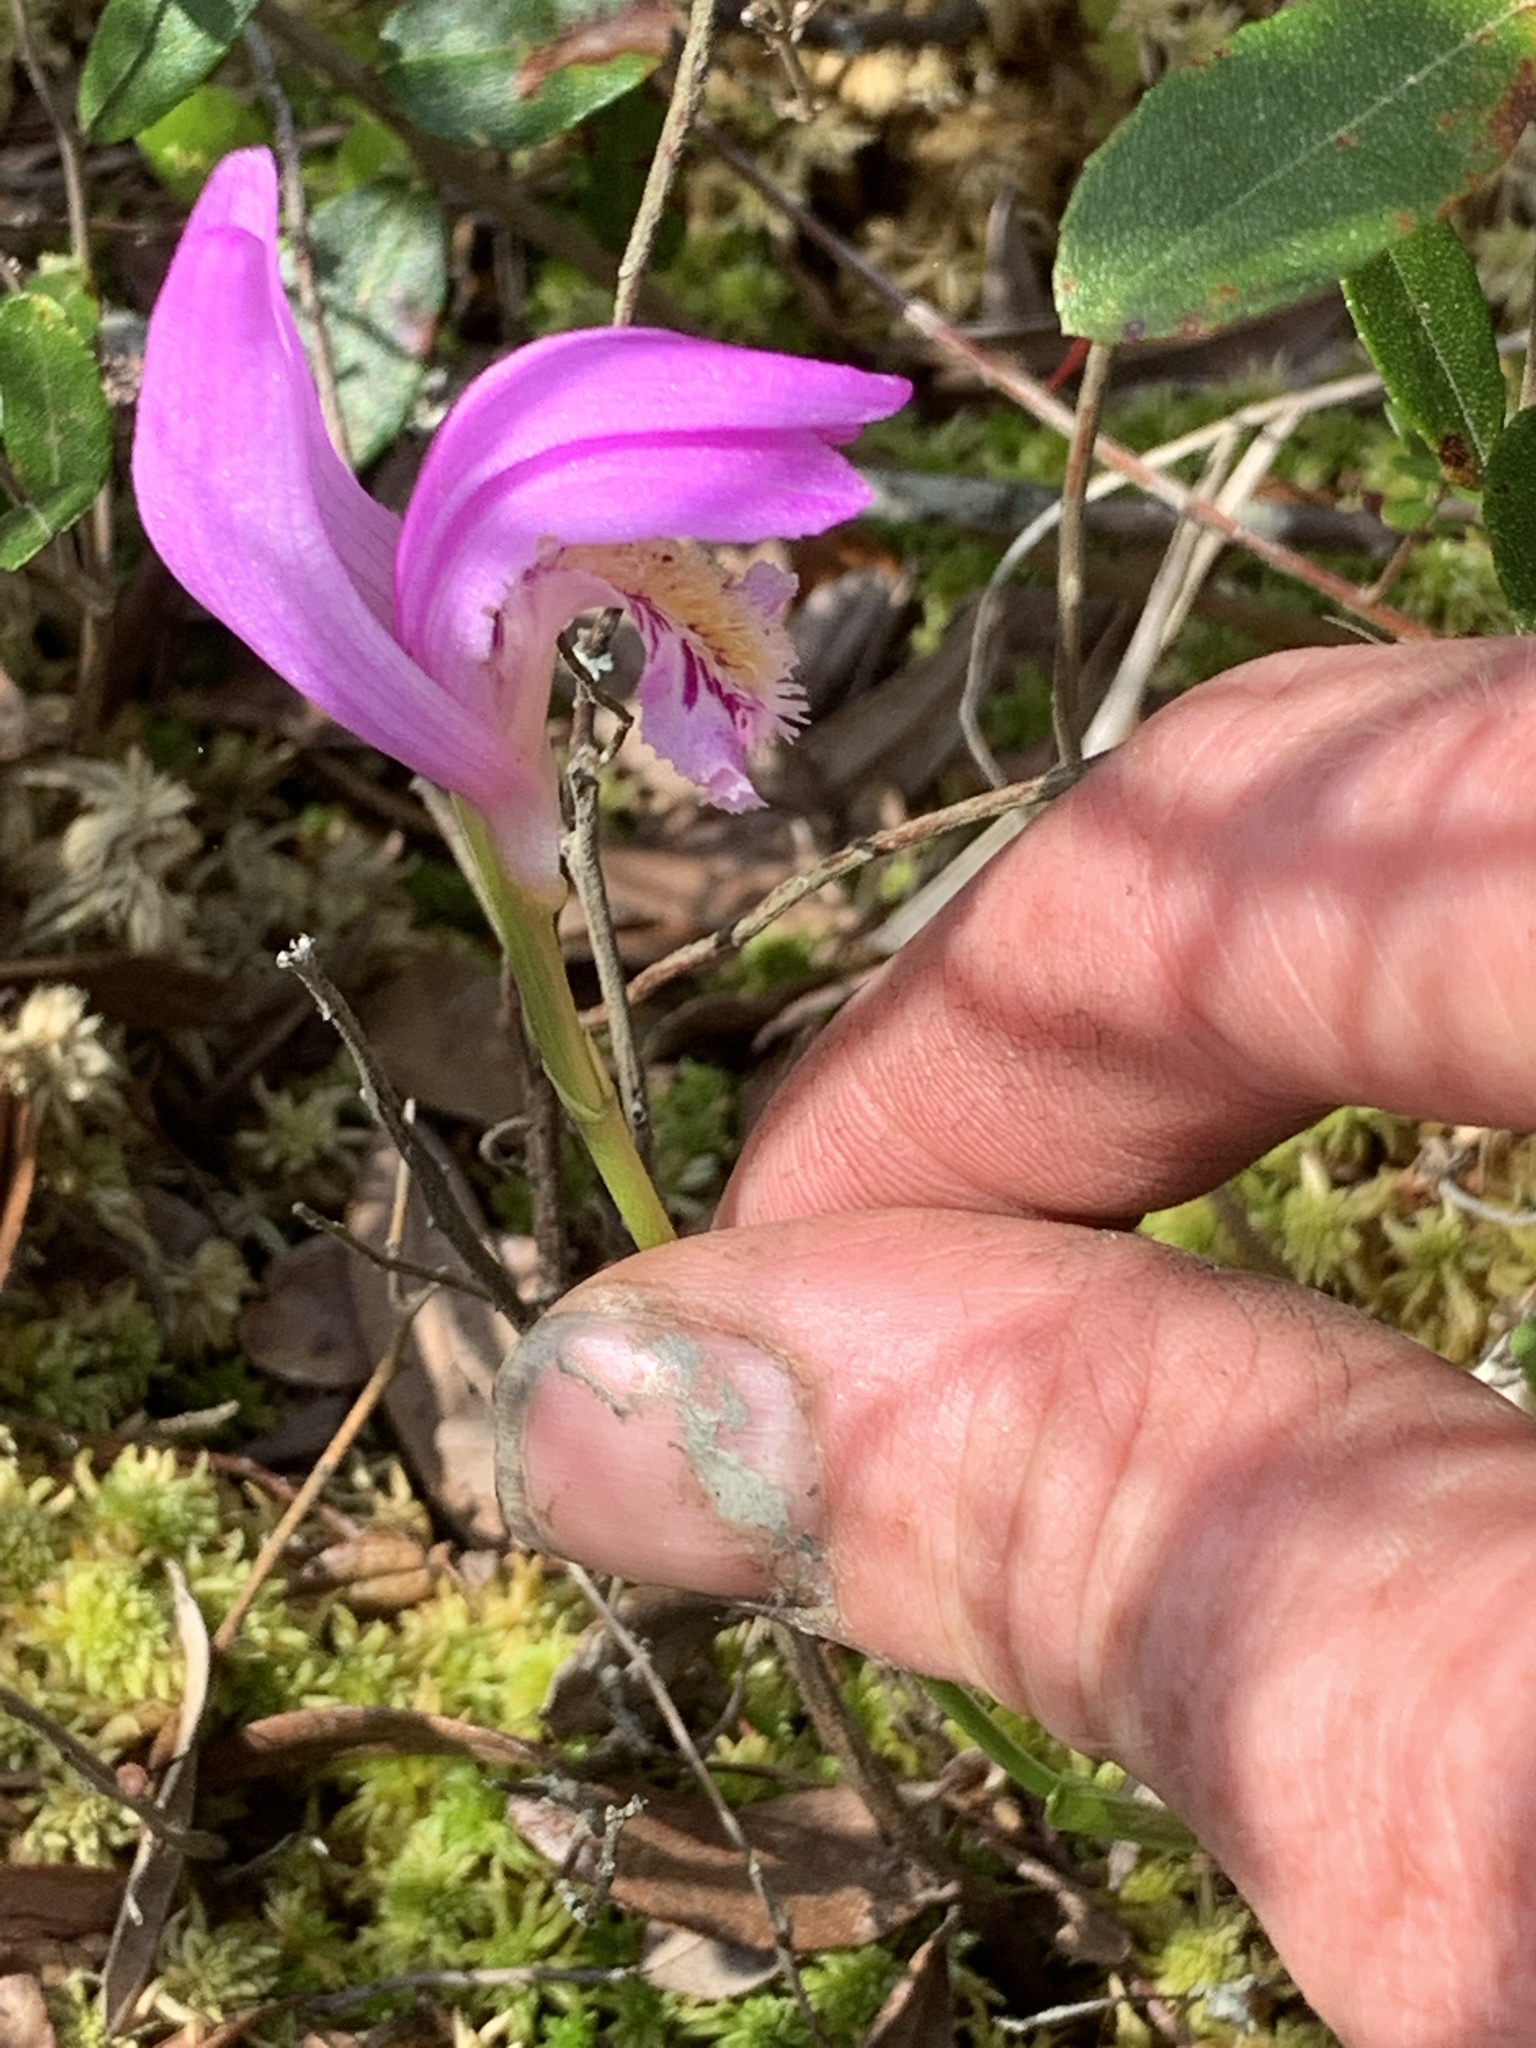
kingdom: Plantae
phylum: Tracheophyta
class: Liliopsida
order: Asparagales
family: Orchidaceae
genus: Arethusa
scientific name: Arethusa bulbosa
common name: Arethusa
